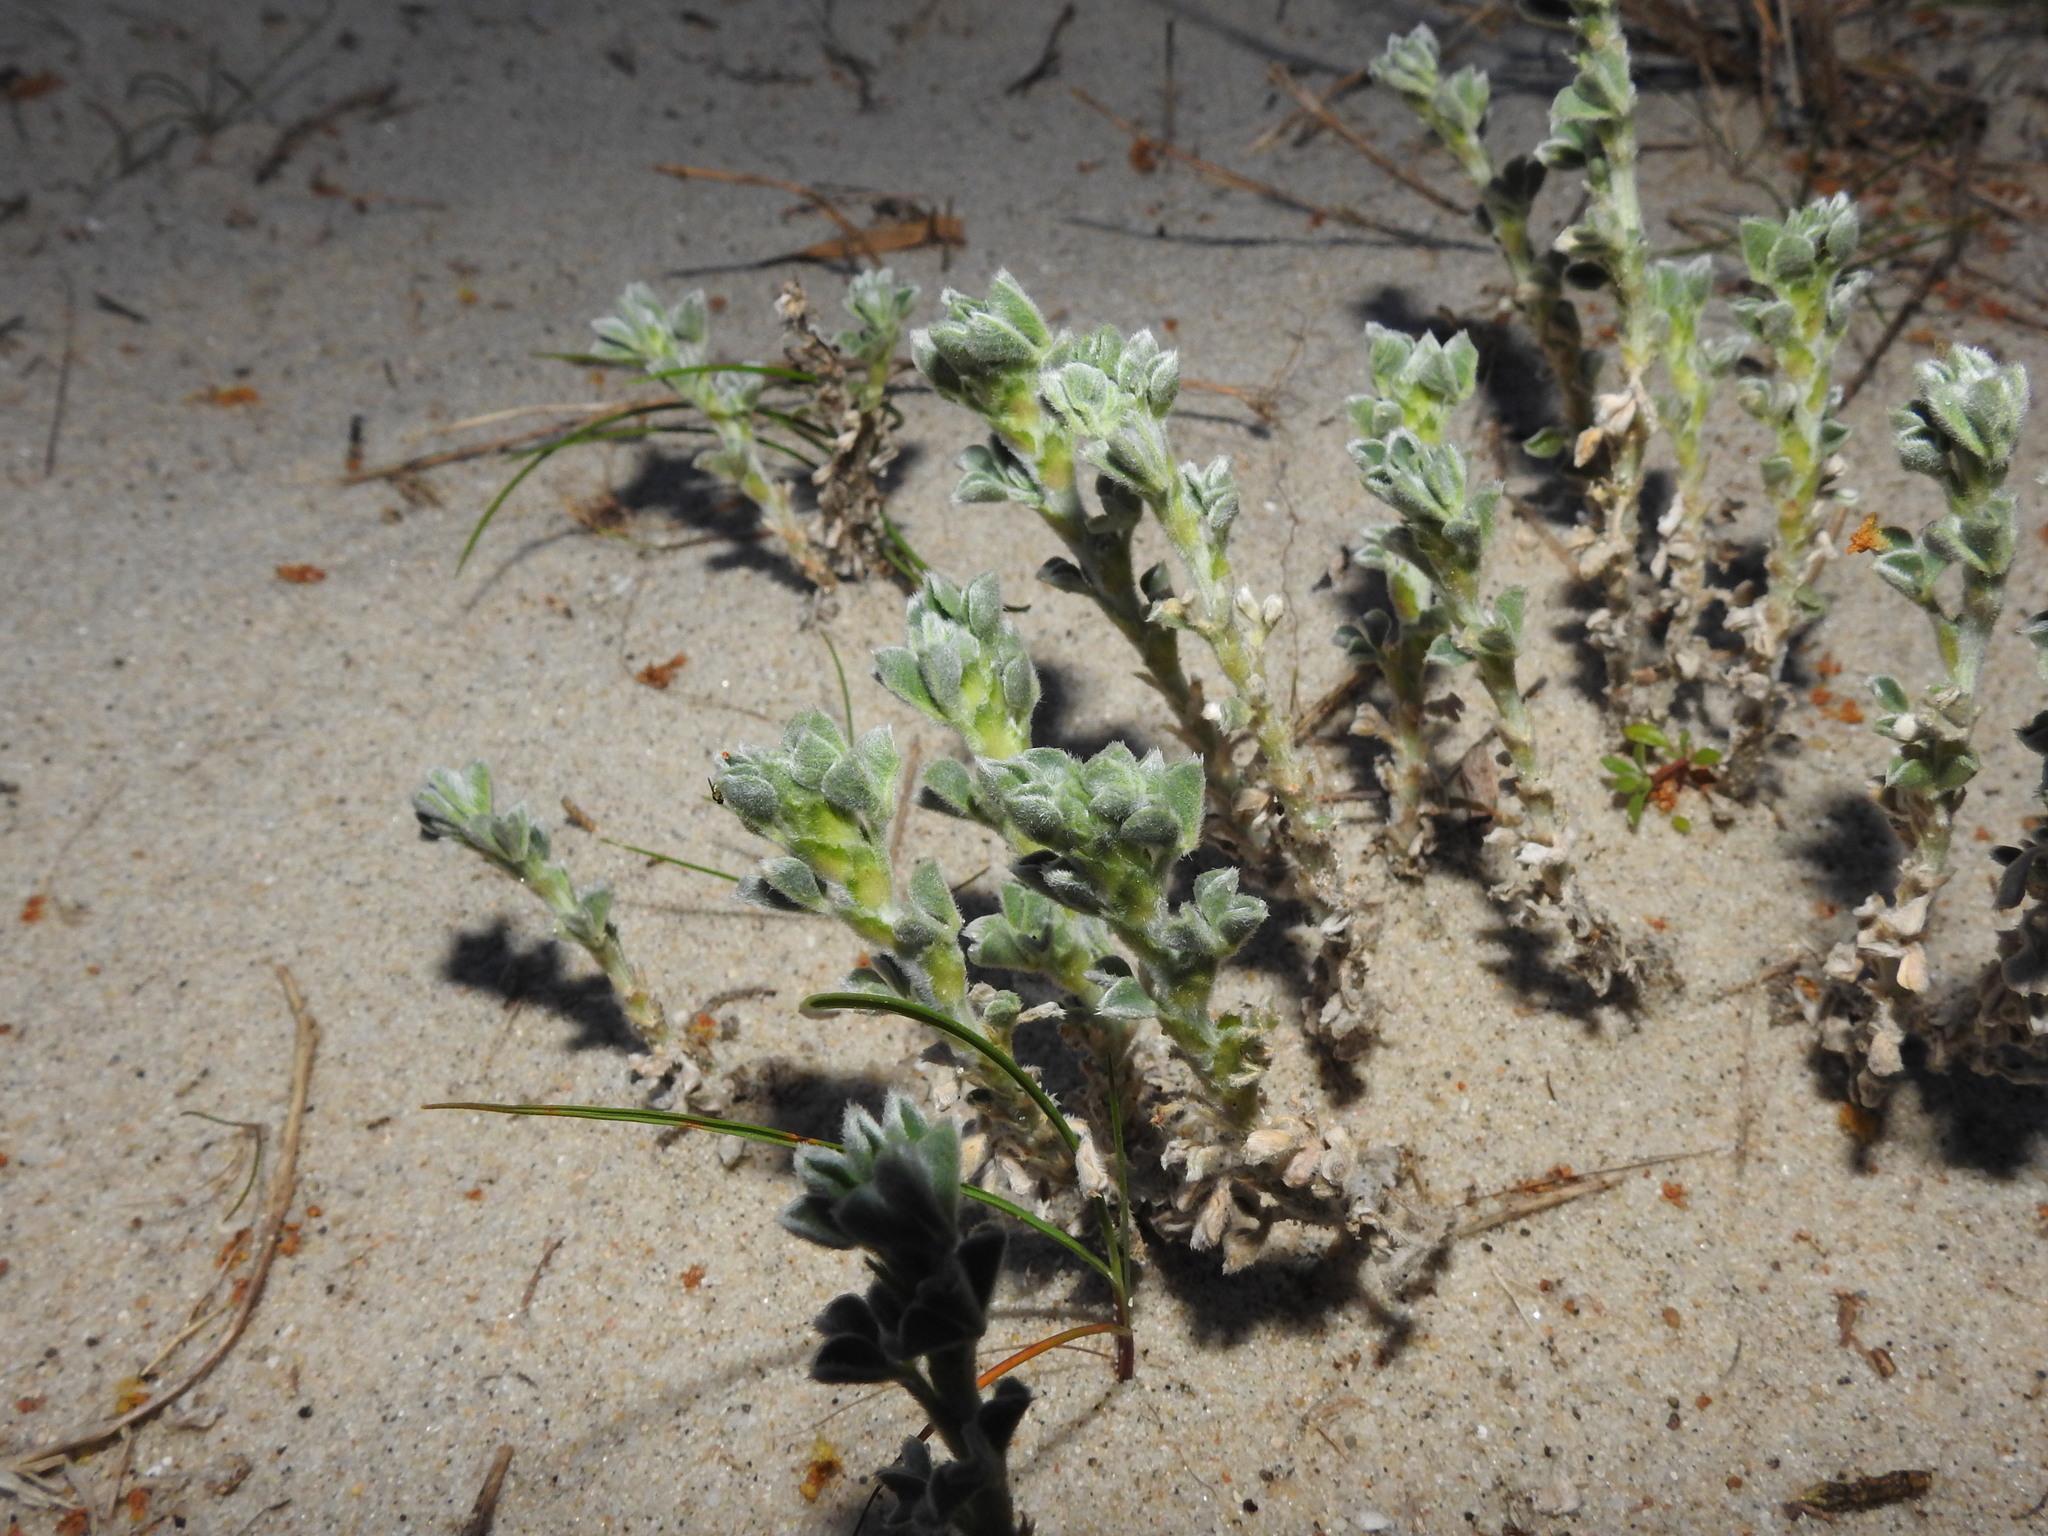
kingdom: Plantae
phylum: Tracheophyta
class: Magnoliopsida
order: Fabales
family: Fabaceae
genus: Medicago
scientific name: Medicago marina
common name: Sea medick
